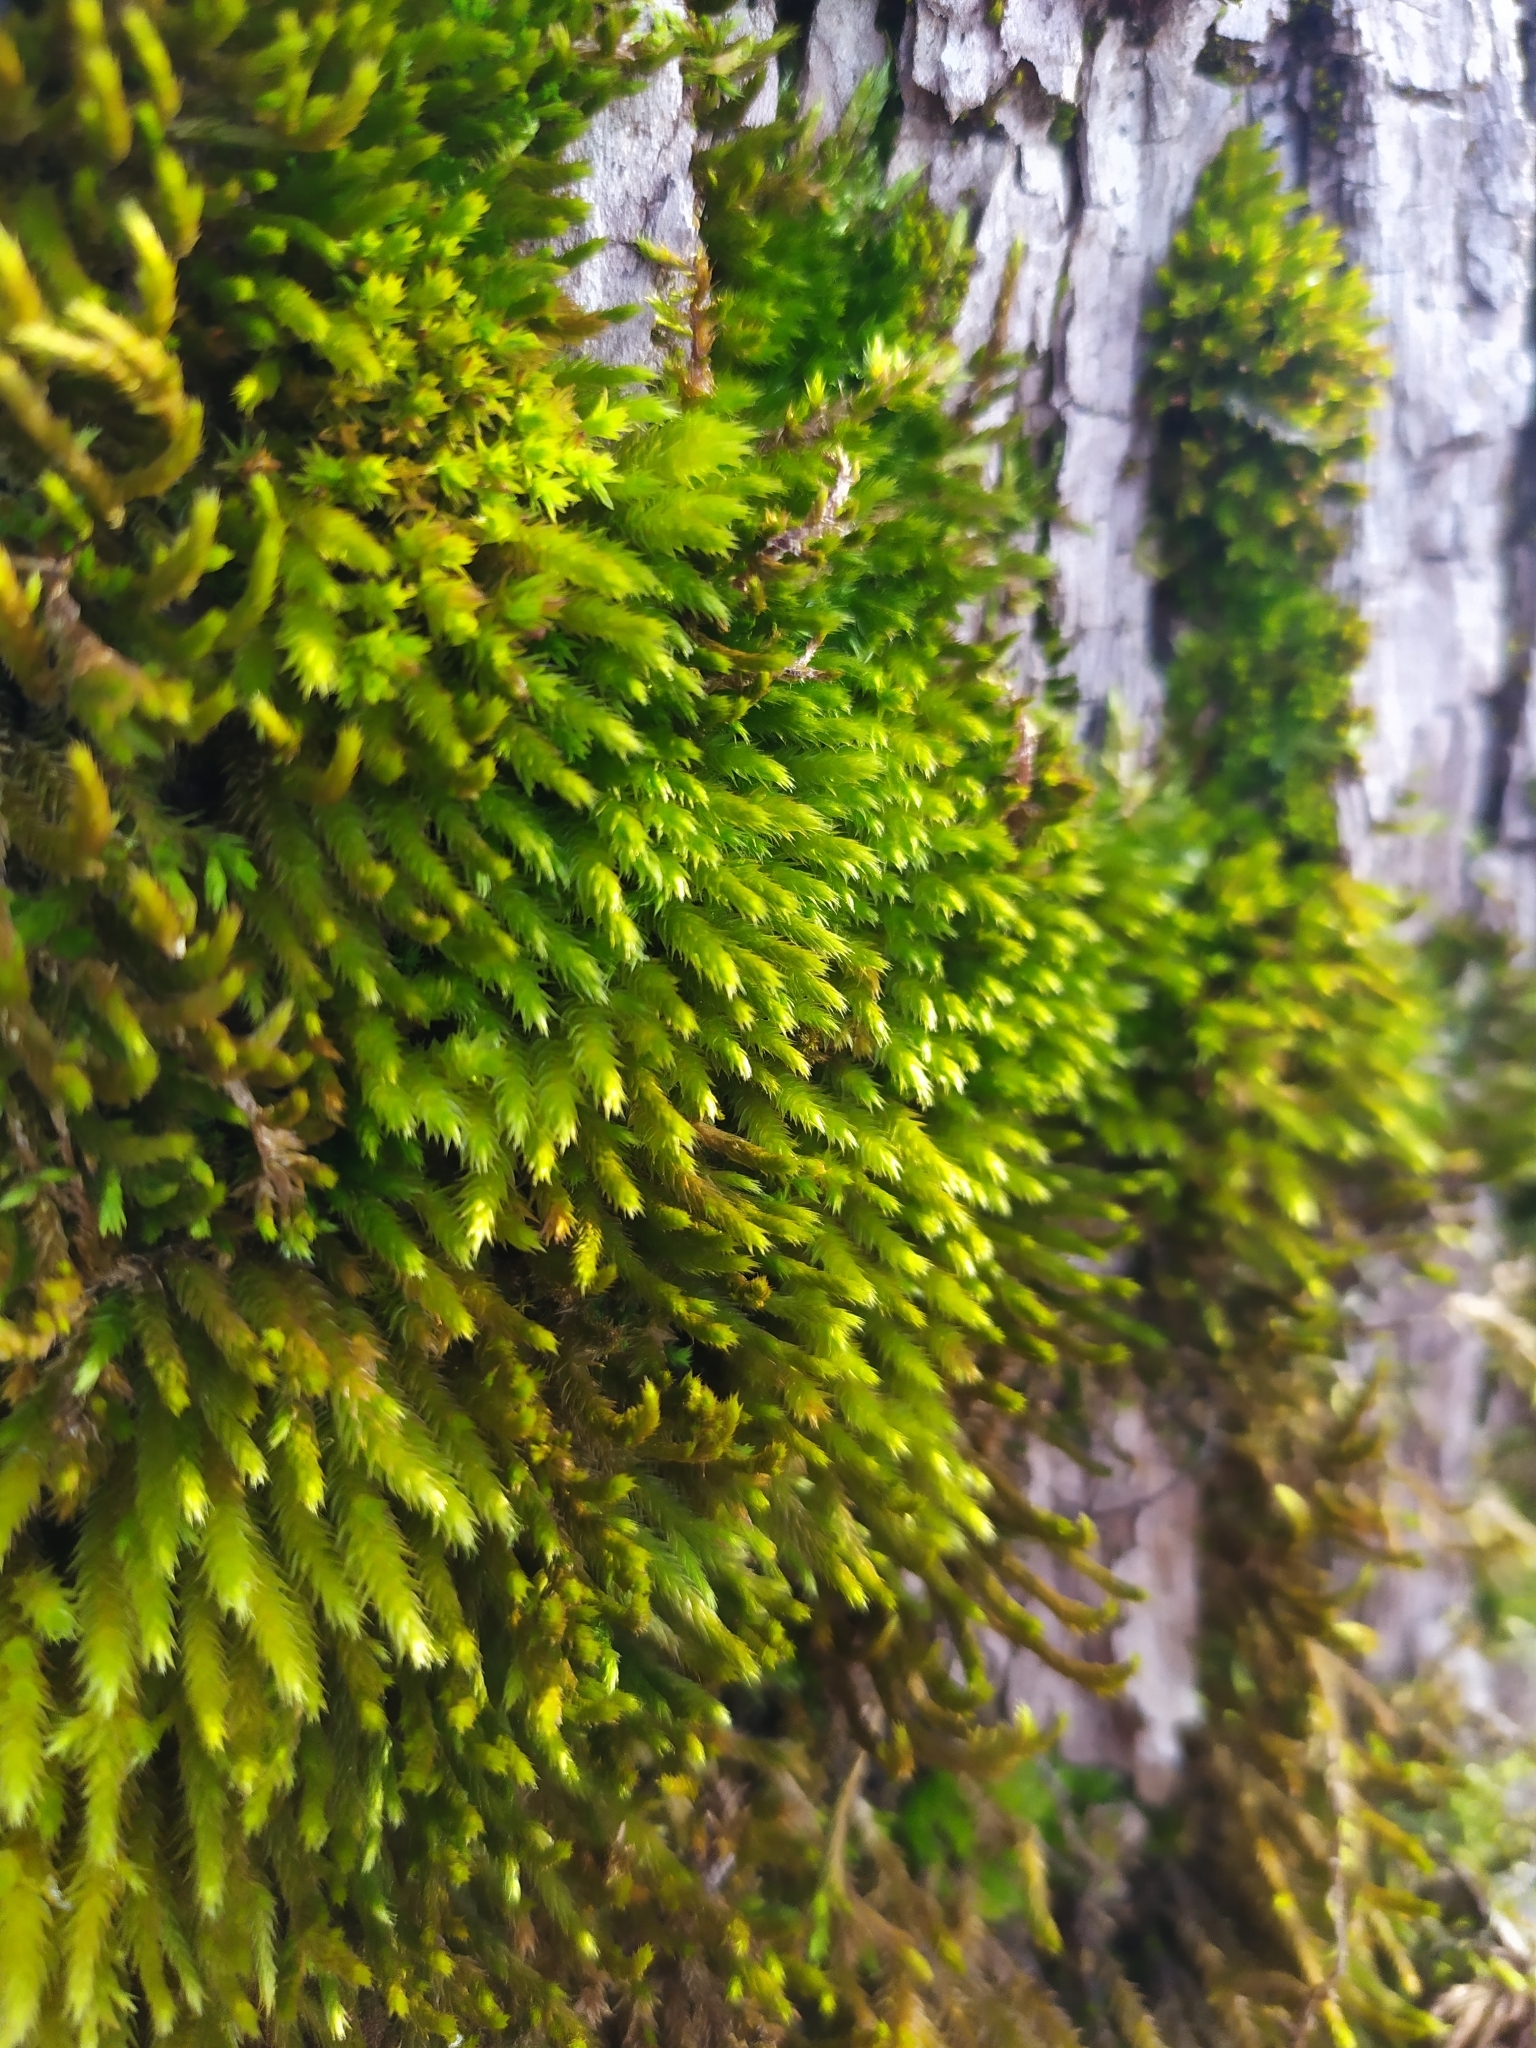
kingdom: Plantae
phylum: Bryophyta
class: Bryopsida
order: Hypnales
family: Leucodontaceae
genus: Leucodon
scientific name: Leucodon sciuroides
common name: Squirrel-tail moss
